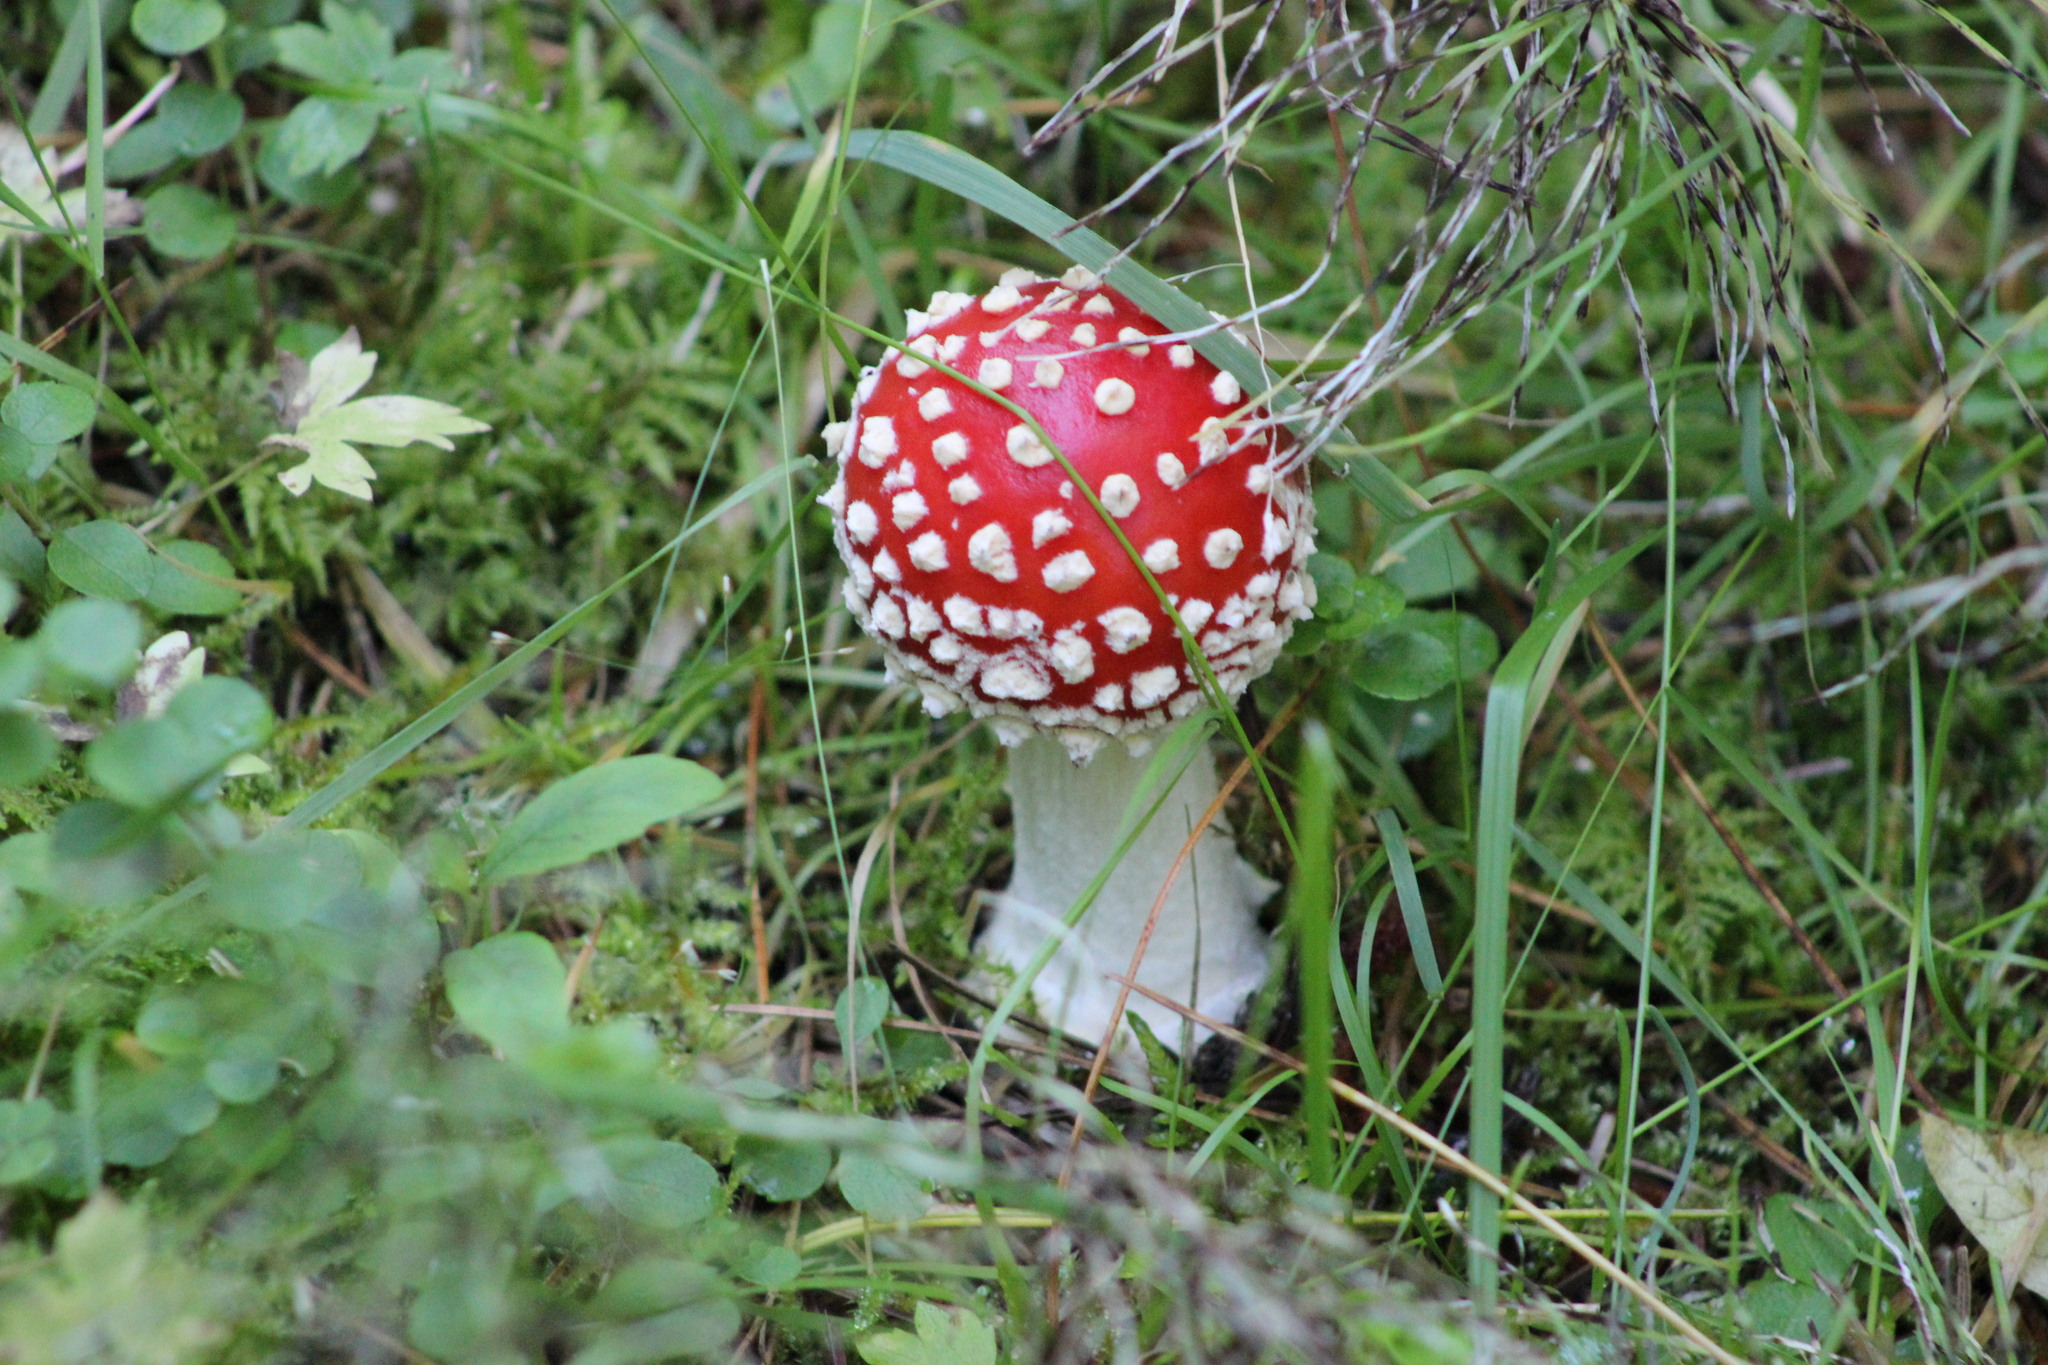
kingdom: Fungi
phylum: Basidiomycota
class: Agaricomycetes
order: Agaricales
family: Amanitaceae
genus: Amanita
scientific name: Amanita muscaria
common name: Fly agaric
